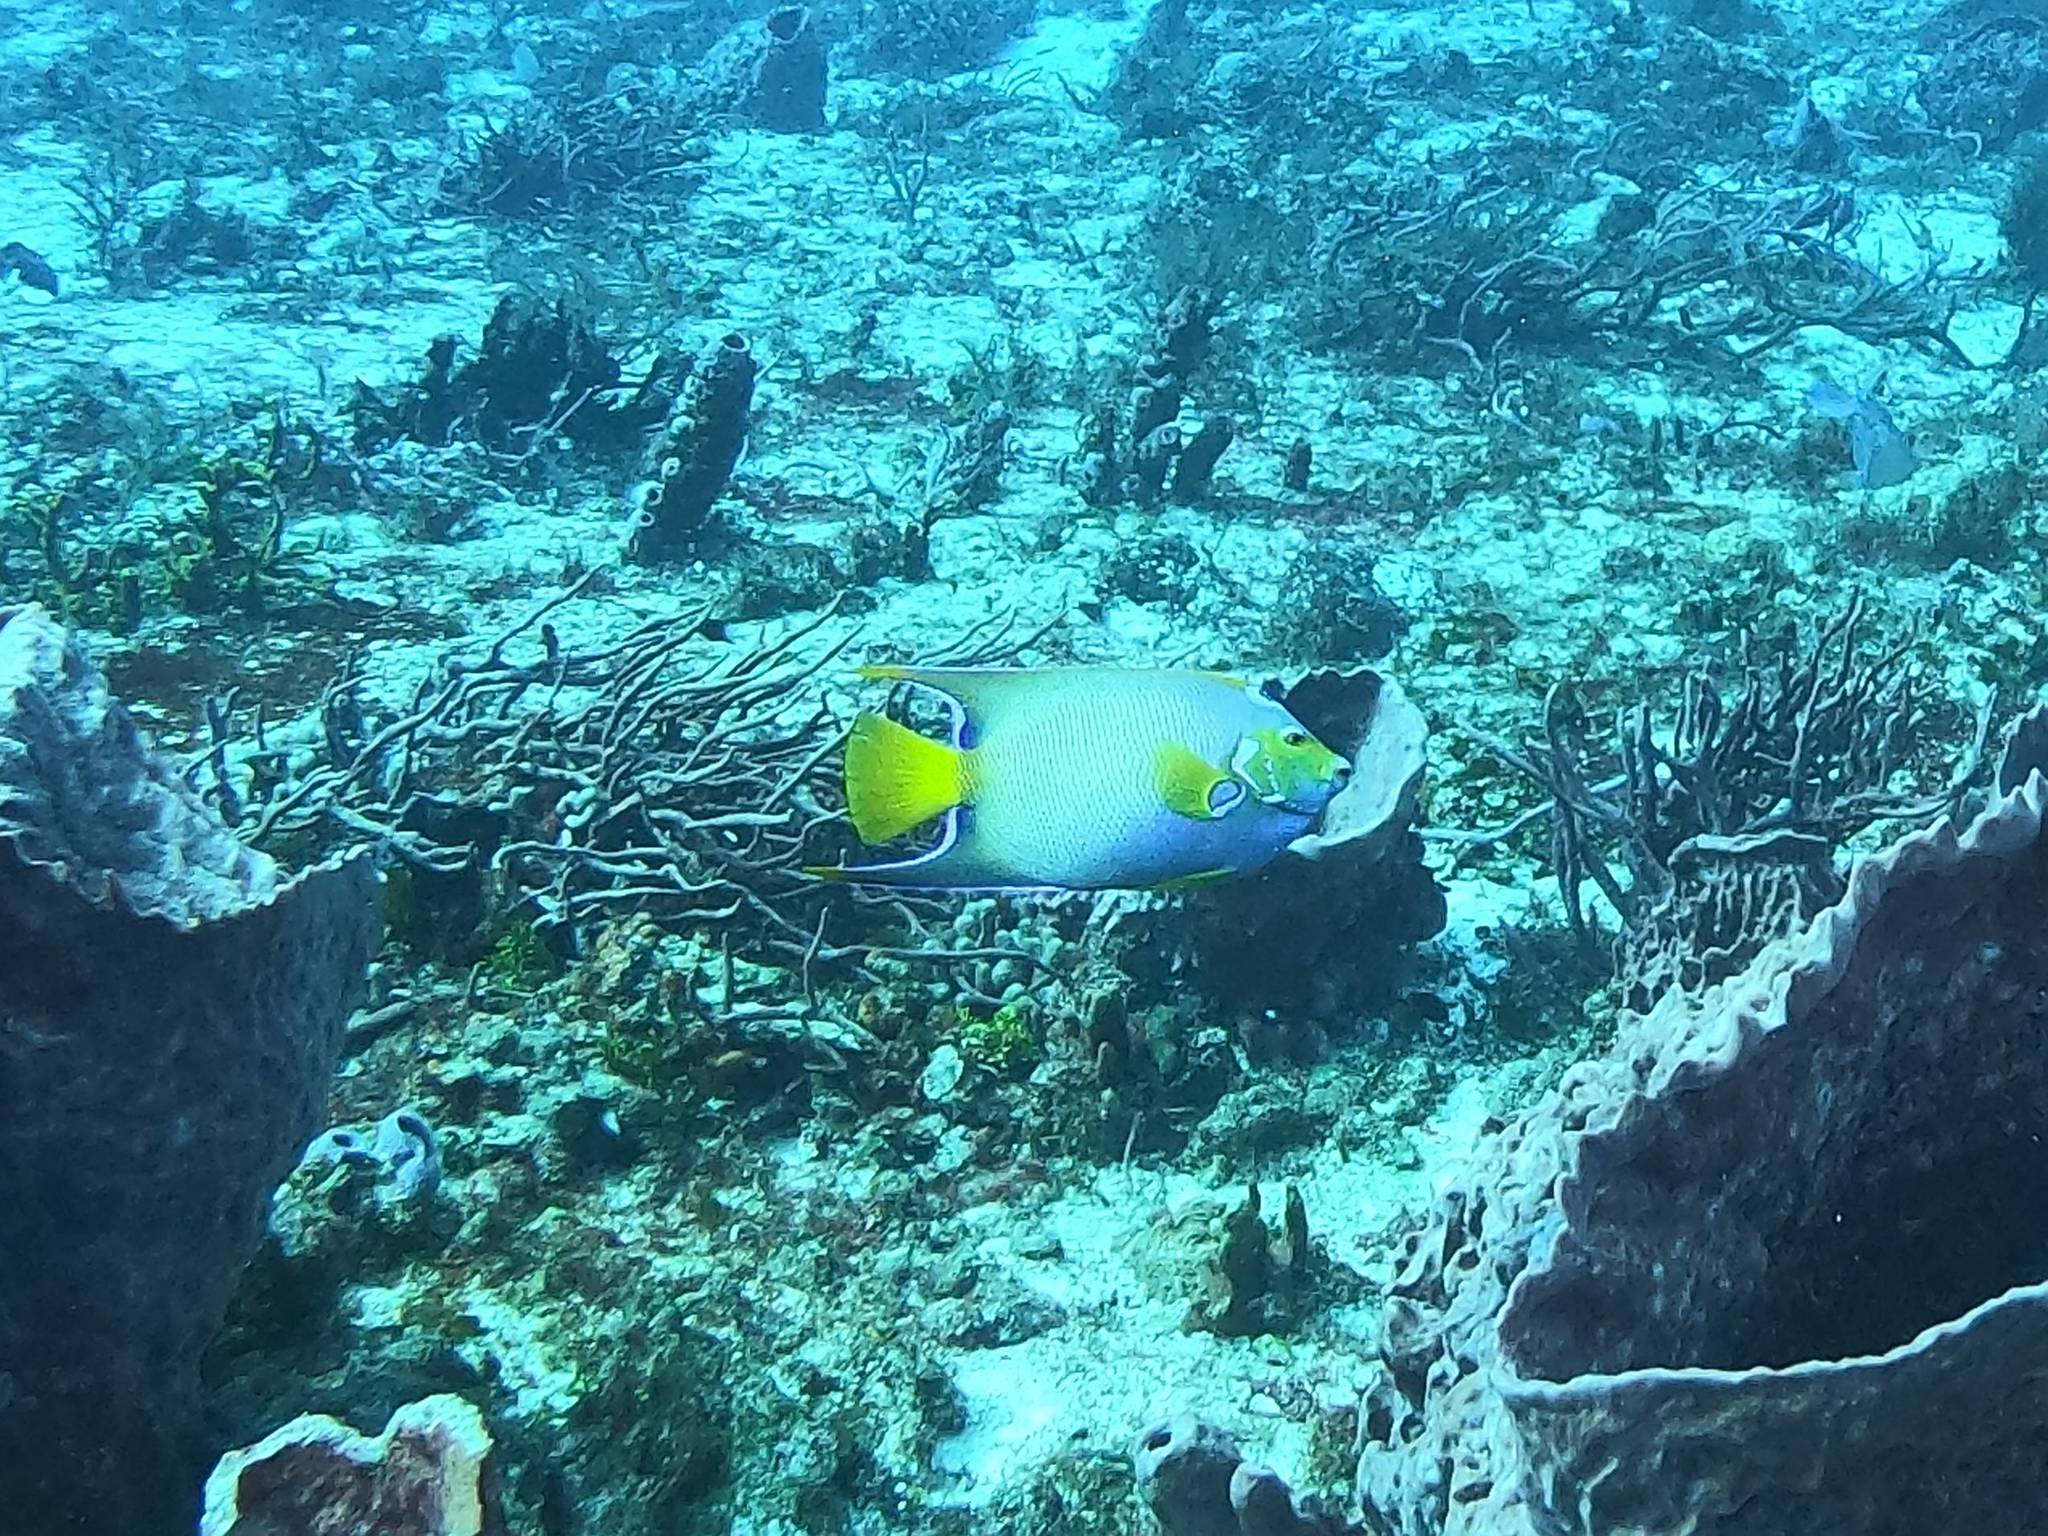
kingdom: Animalia
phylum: Chordata
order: Perciformes
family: Pomacanthidae
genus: Holacanthus
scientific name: Holacanthus ciliaris
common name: Queen angelfish
